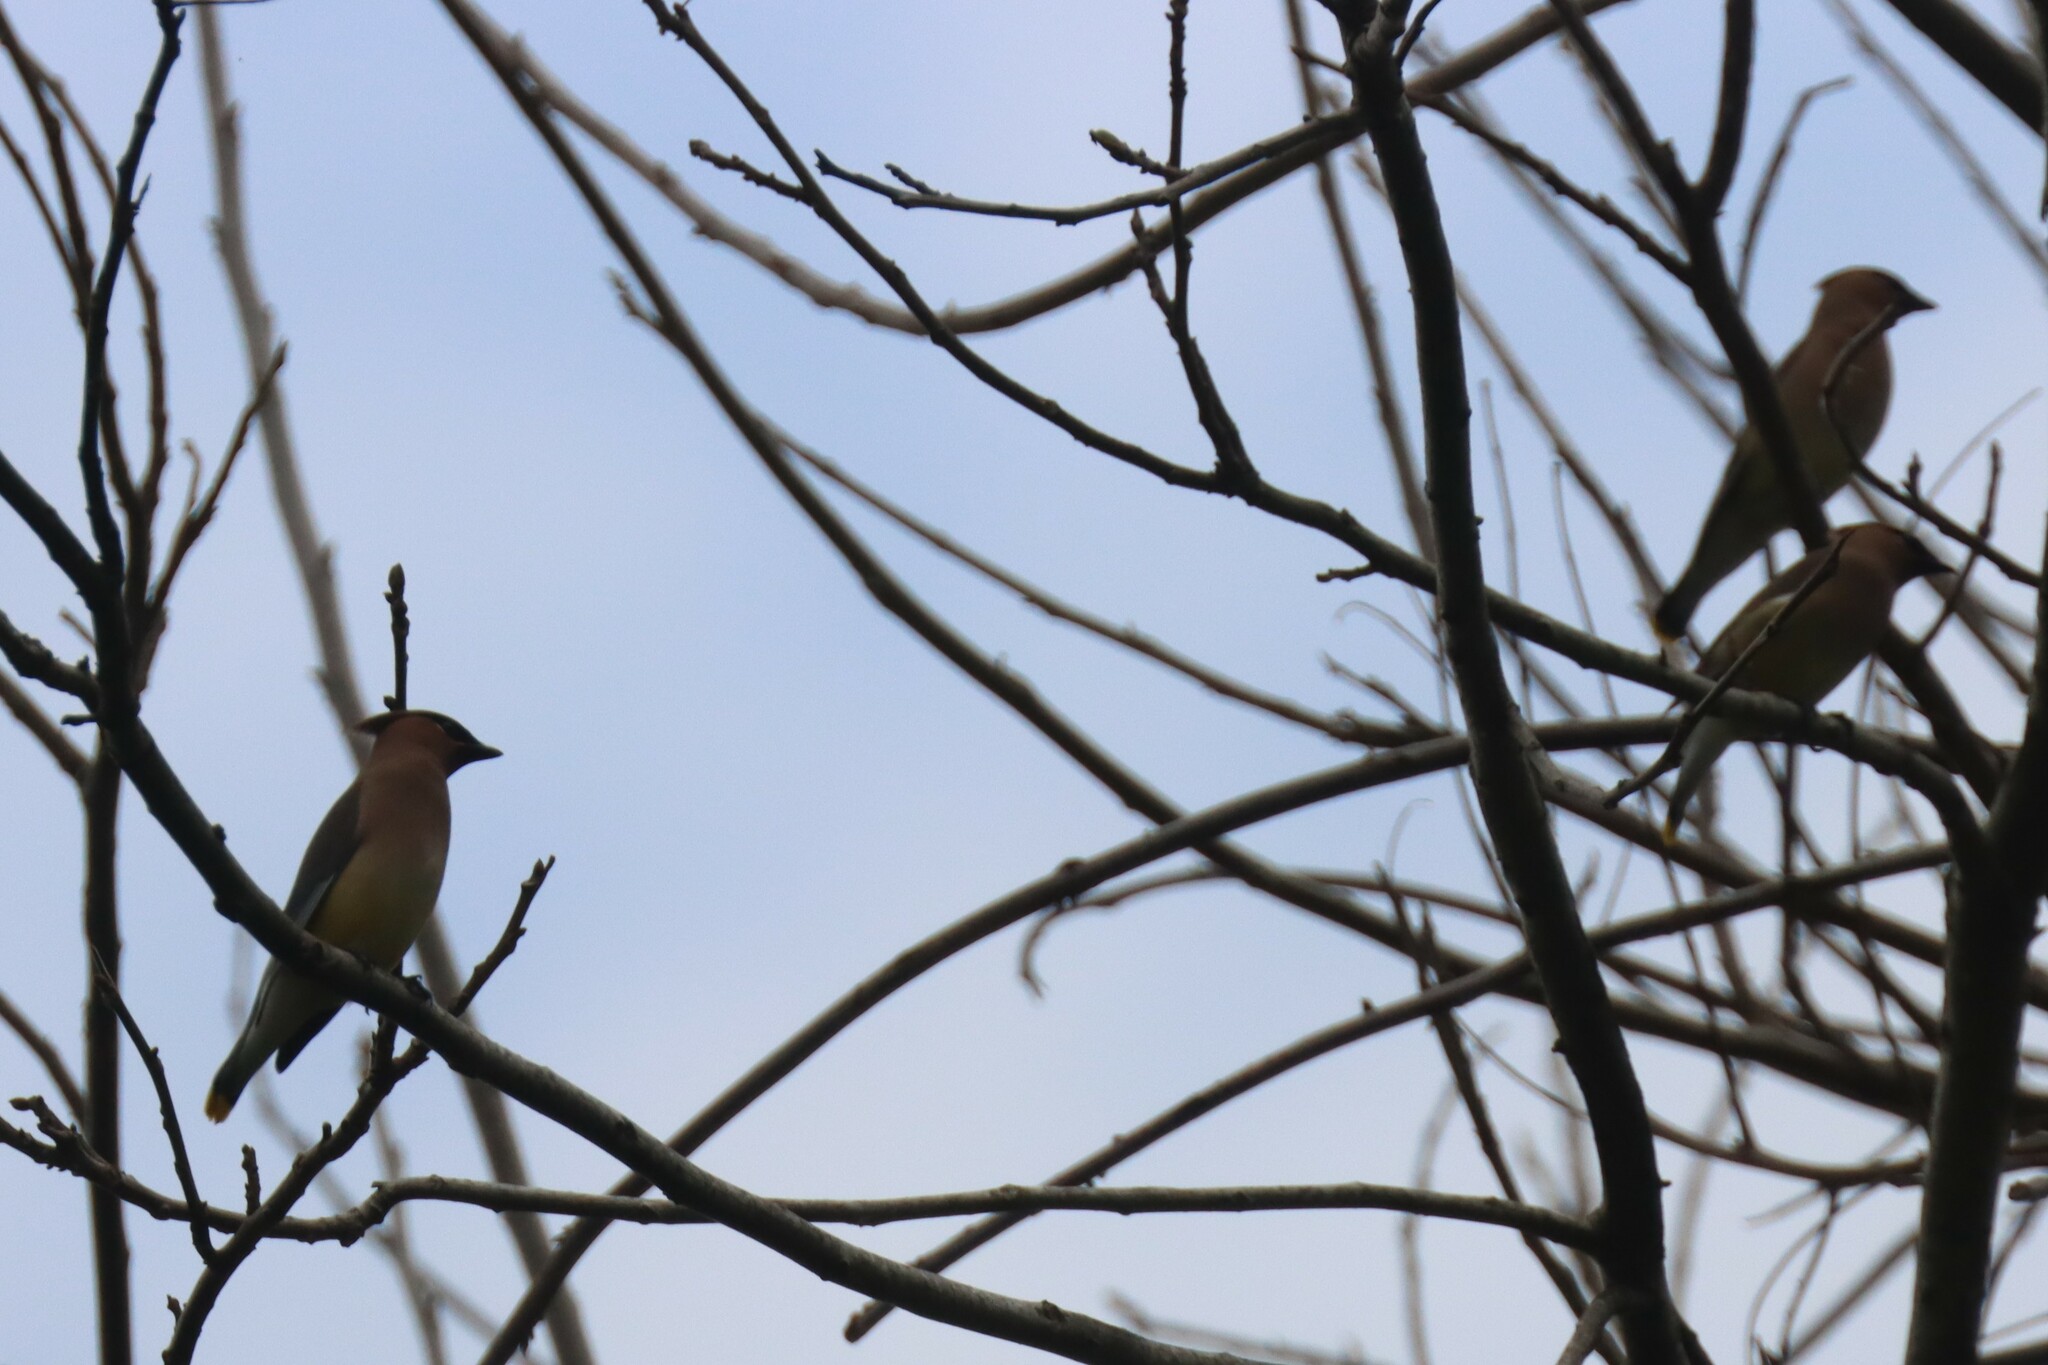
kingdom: Animalia
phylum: Chordata
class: Aves
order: Passeriformes
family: Bombycillidae
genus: Bombycilla
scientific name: Bombycilla cedrorum
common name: Cedar waxwing
